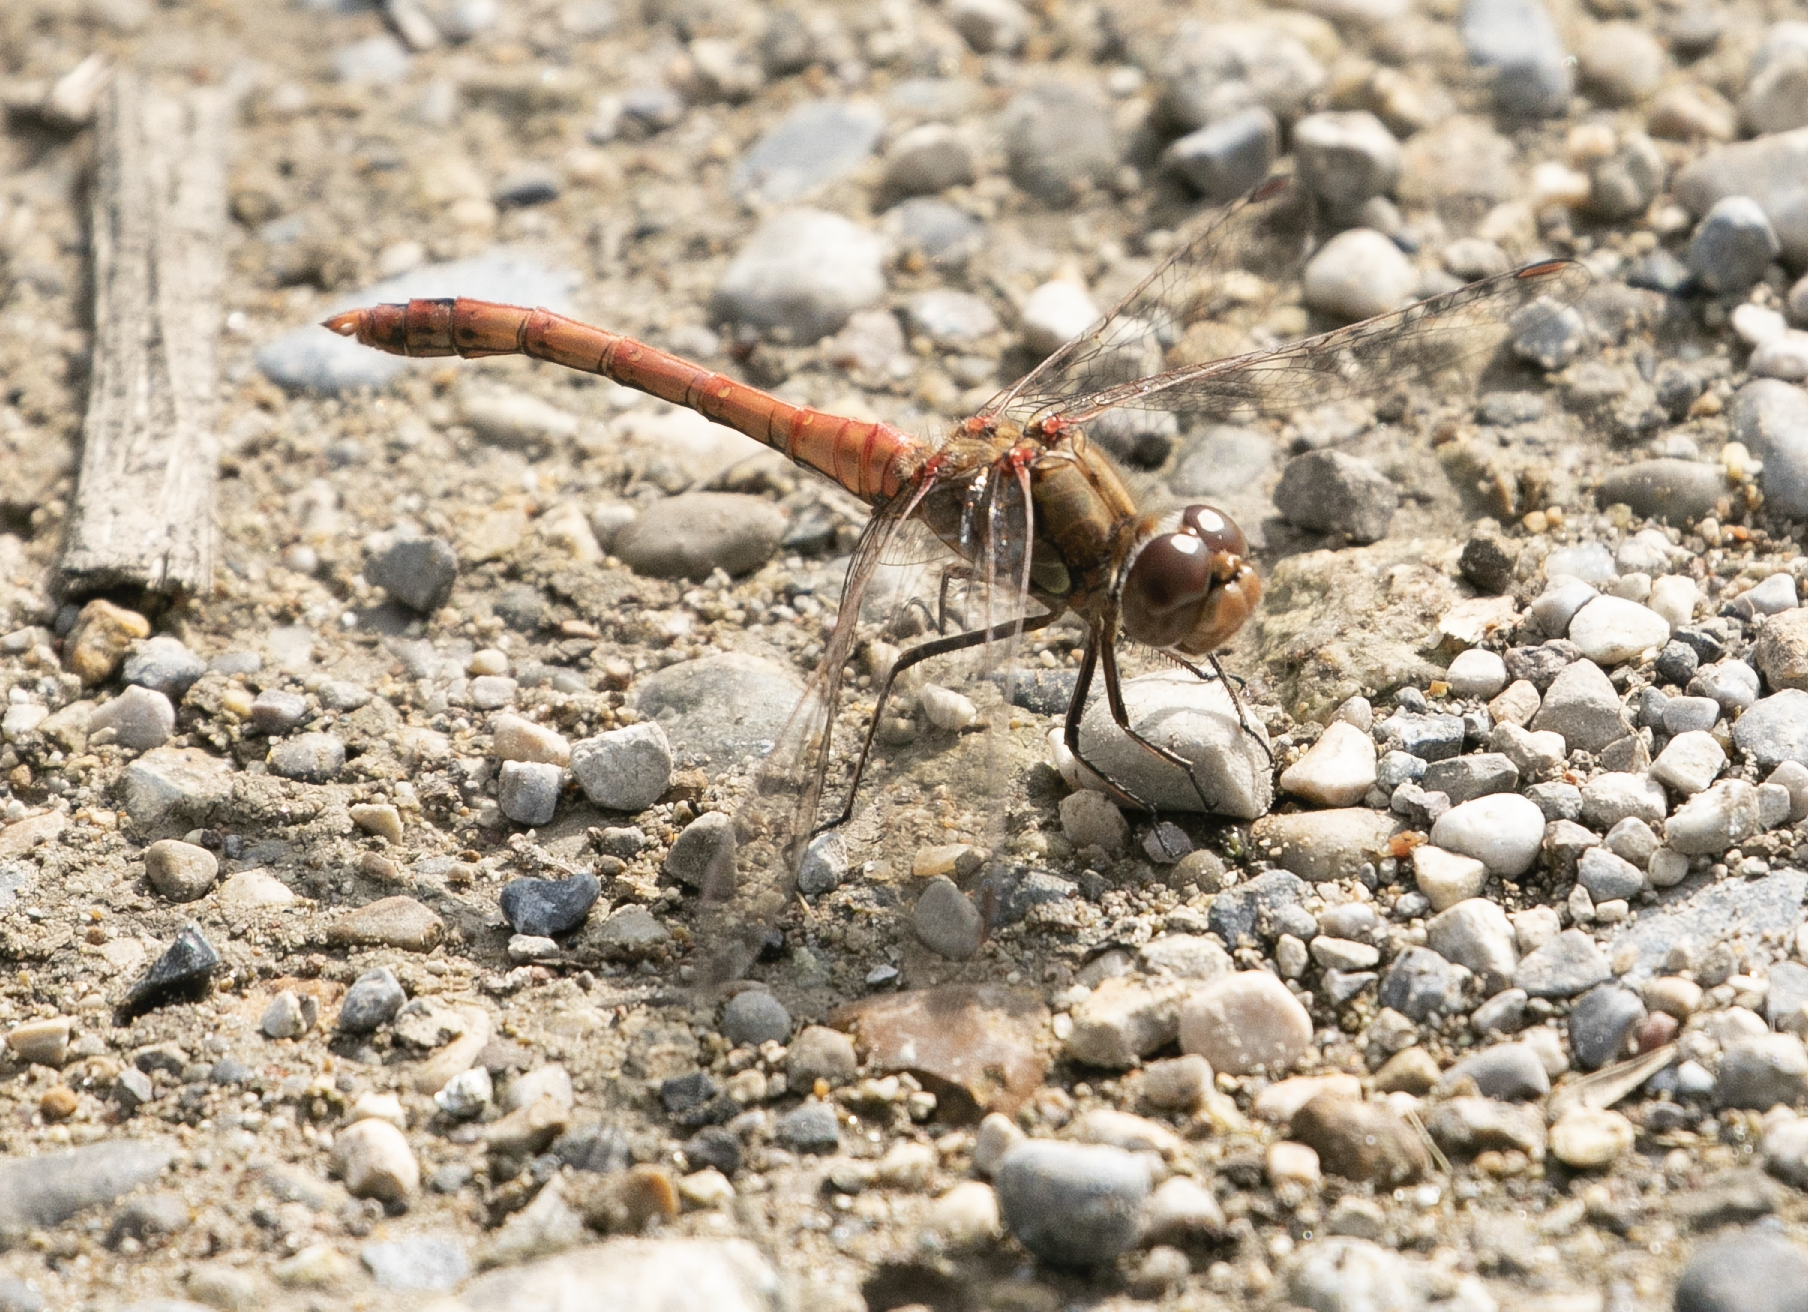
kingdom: Animalia
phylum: Arthropoda
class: Insecta
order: Odonata
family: Libellulidae
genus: Sympetrum
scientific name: Sympetrum striolatum
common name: Common darter
